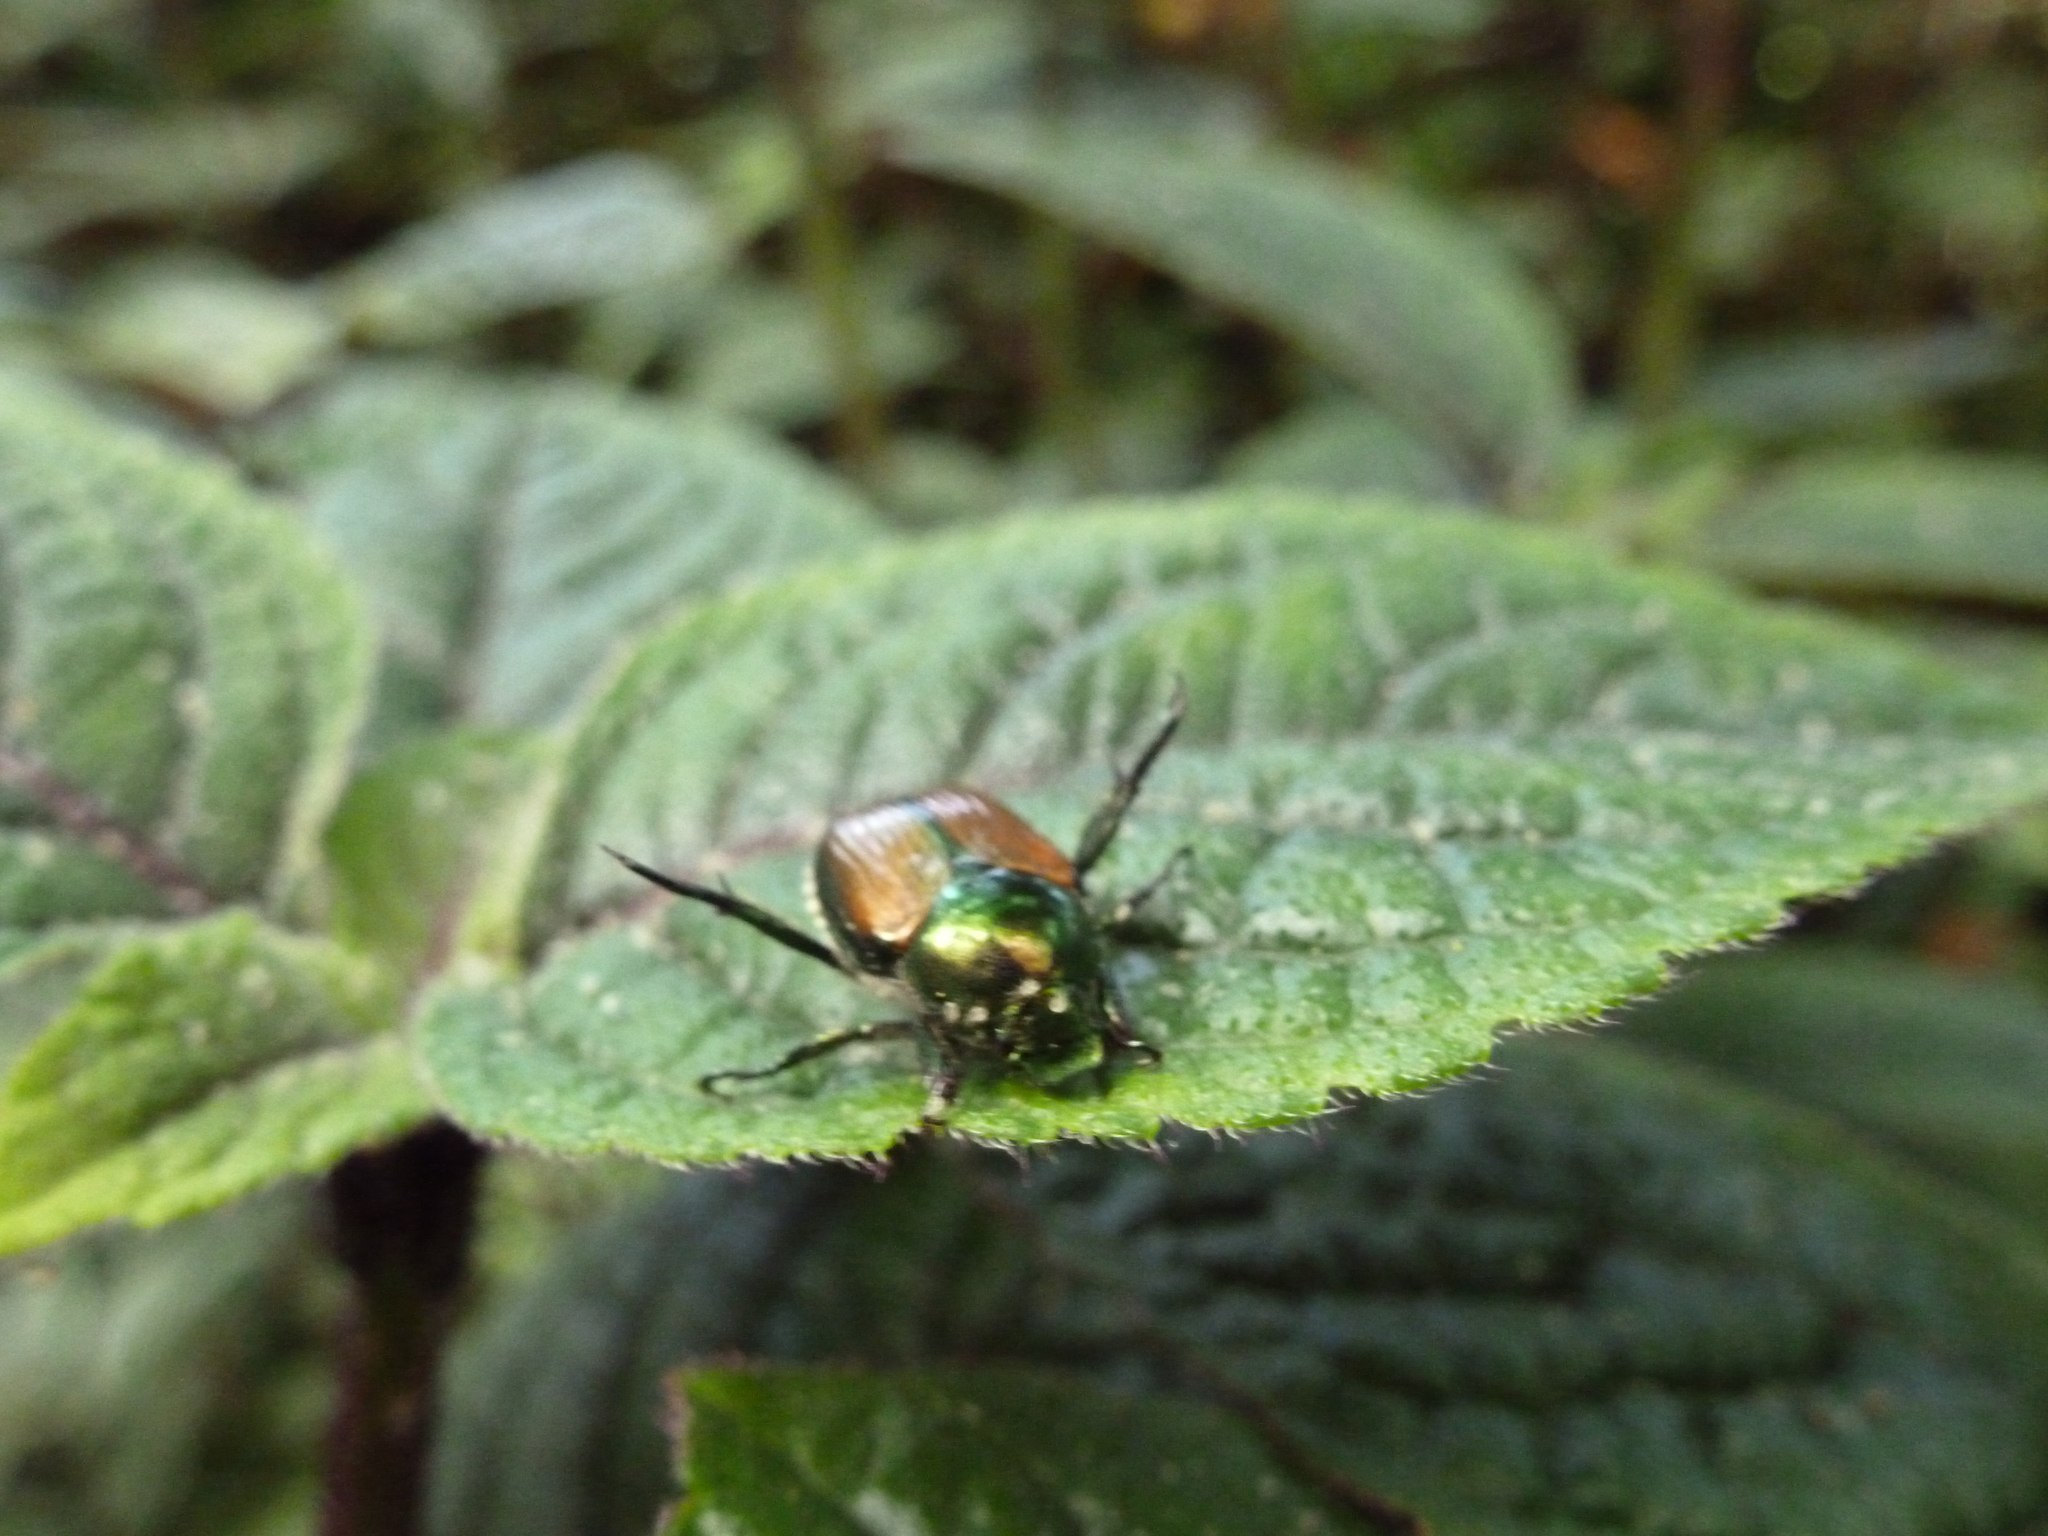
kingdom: Animalia
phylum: Arthropoda
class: Insecta
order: Coleoptera
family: Scarabaeidae
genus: Popillia
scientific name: Popillia japonica
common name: Japanese beetle
